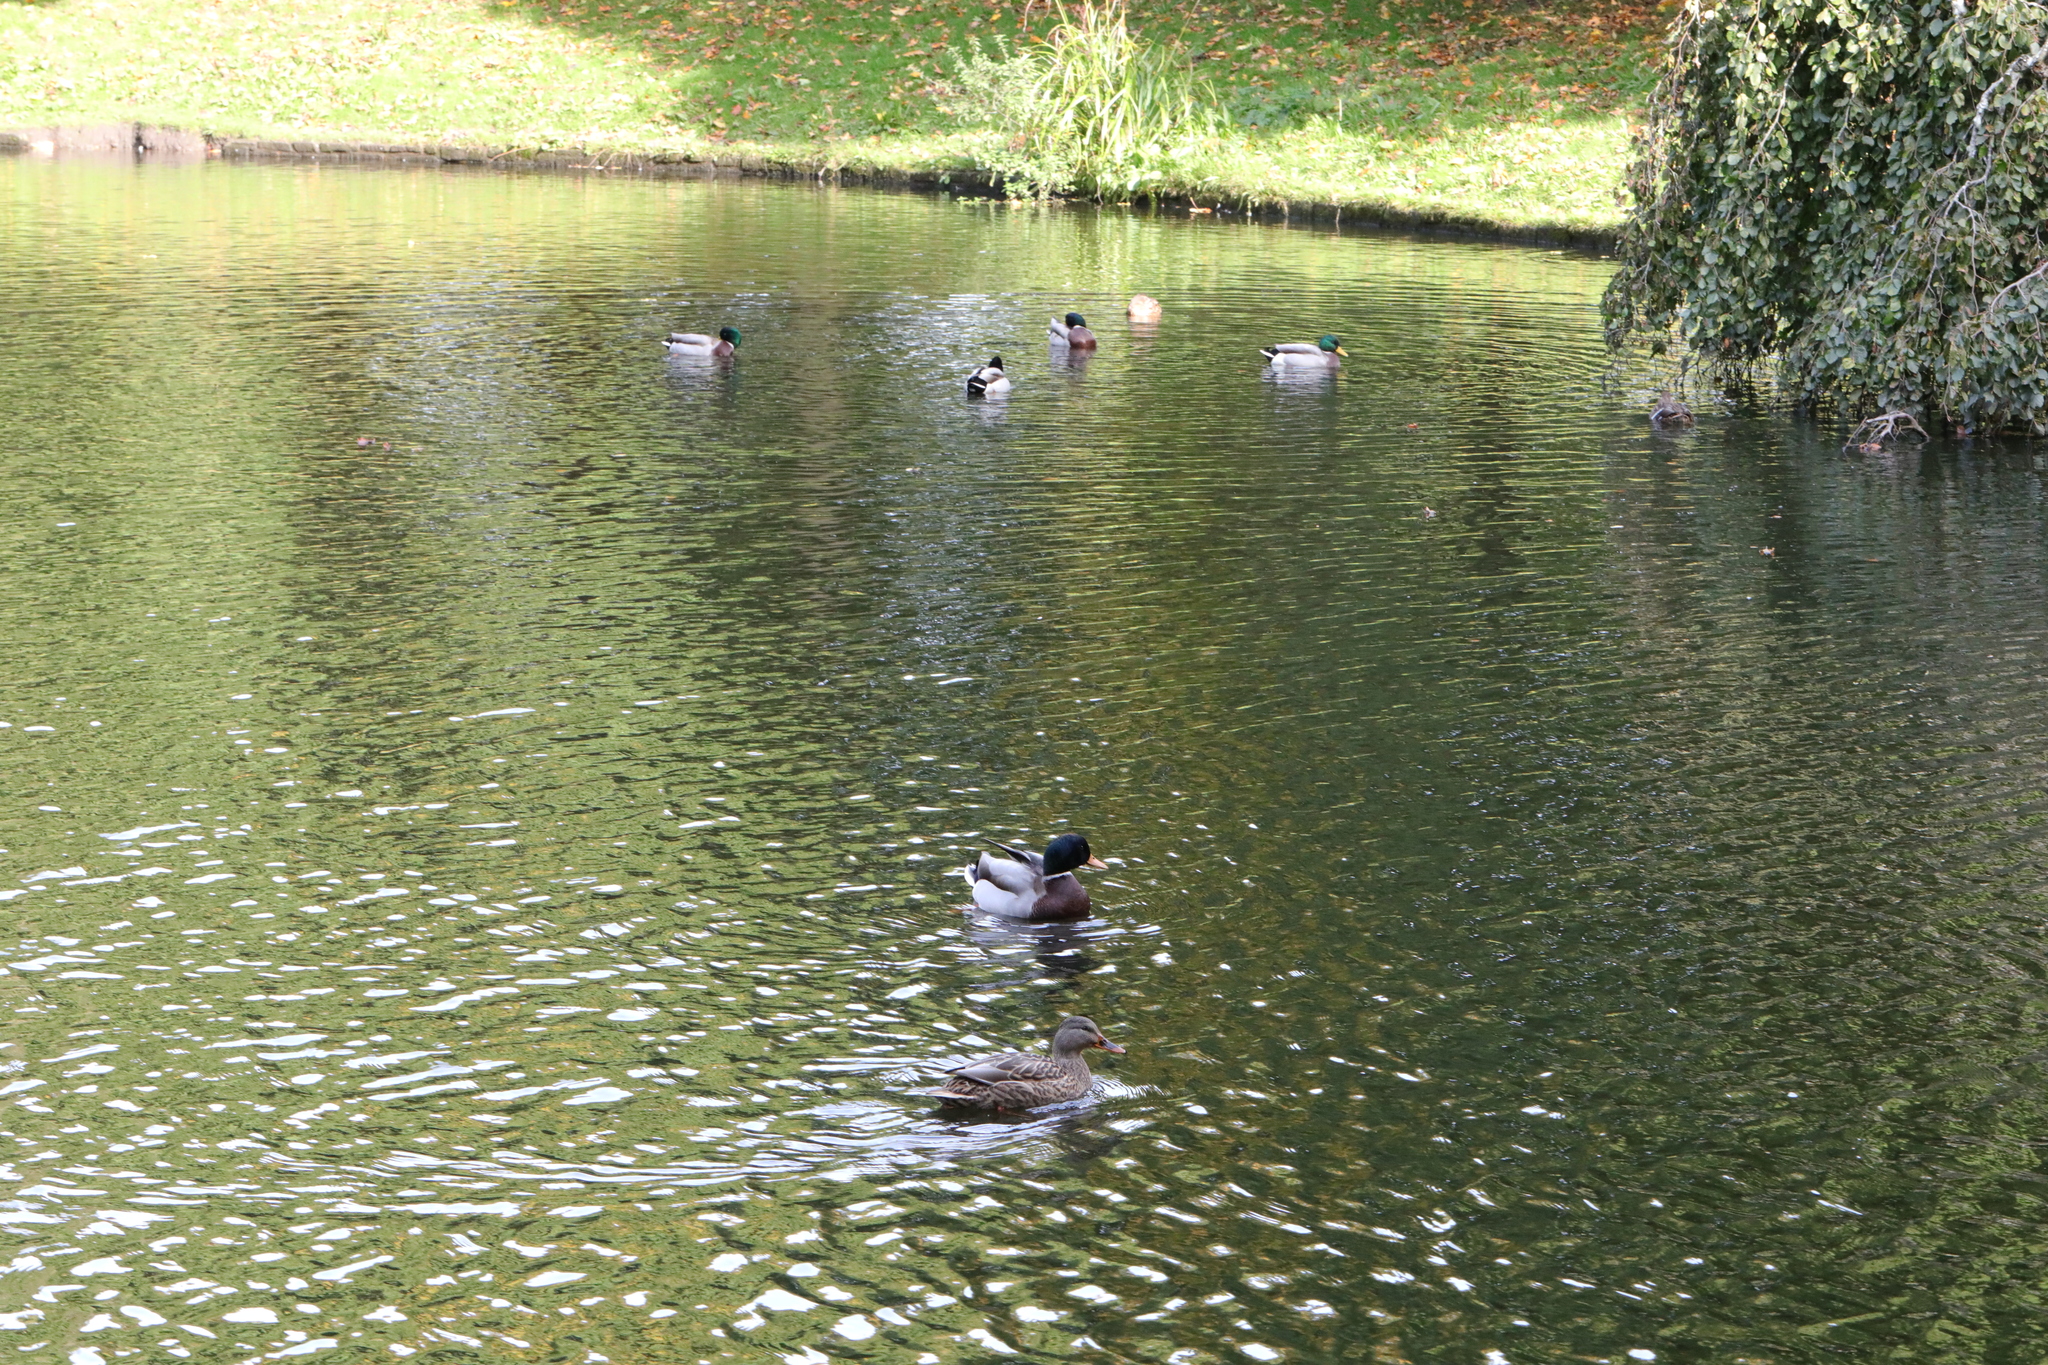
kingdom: Animalia
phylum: Chordata
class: Aves
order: Anseriformes
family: Anatidae
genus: Anas
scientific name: Anas platyrhynchos
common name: Mallard
